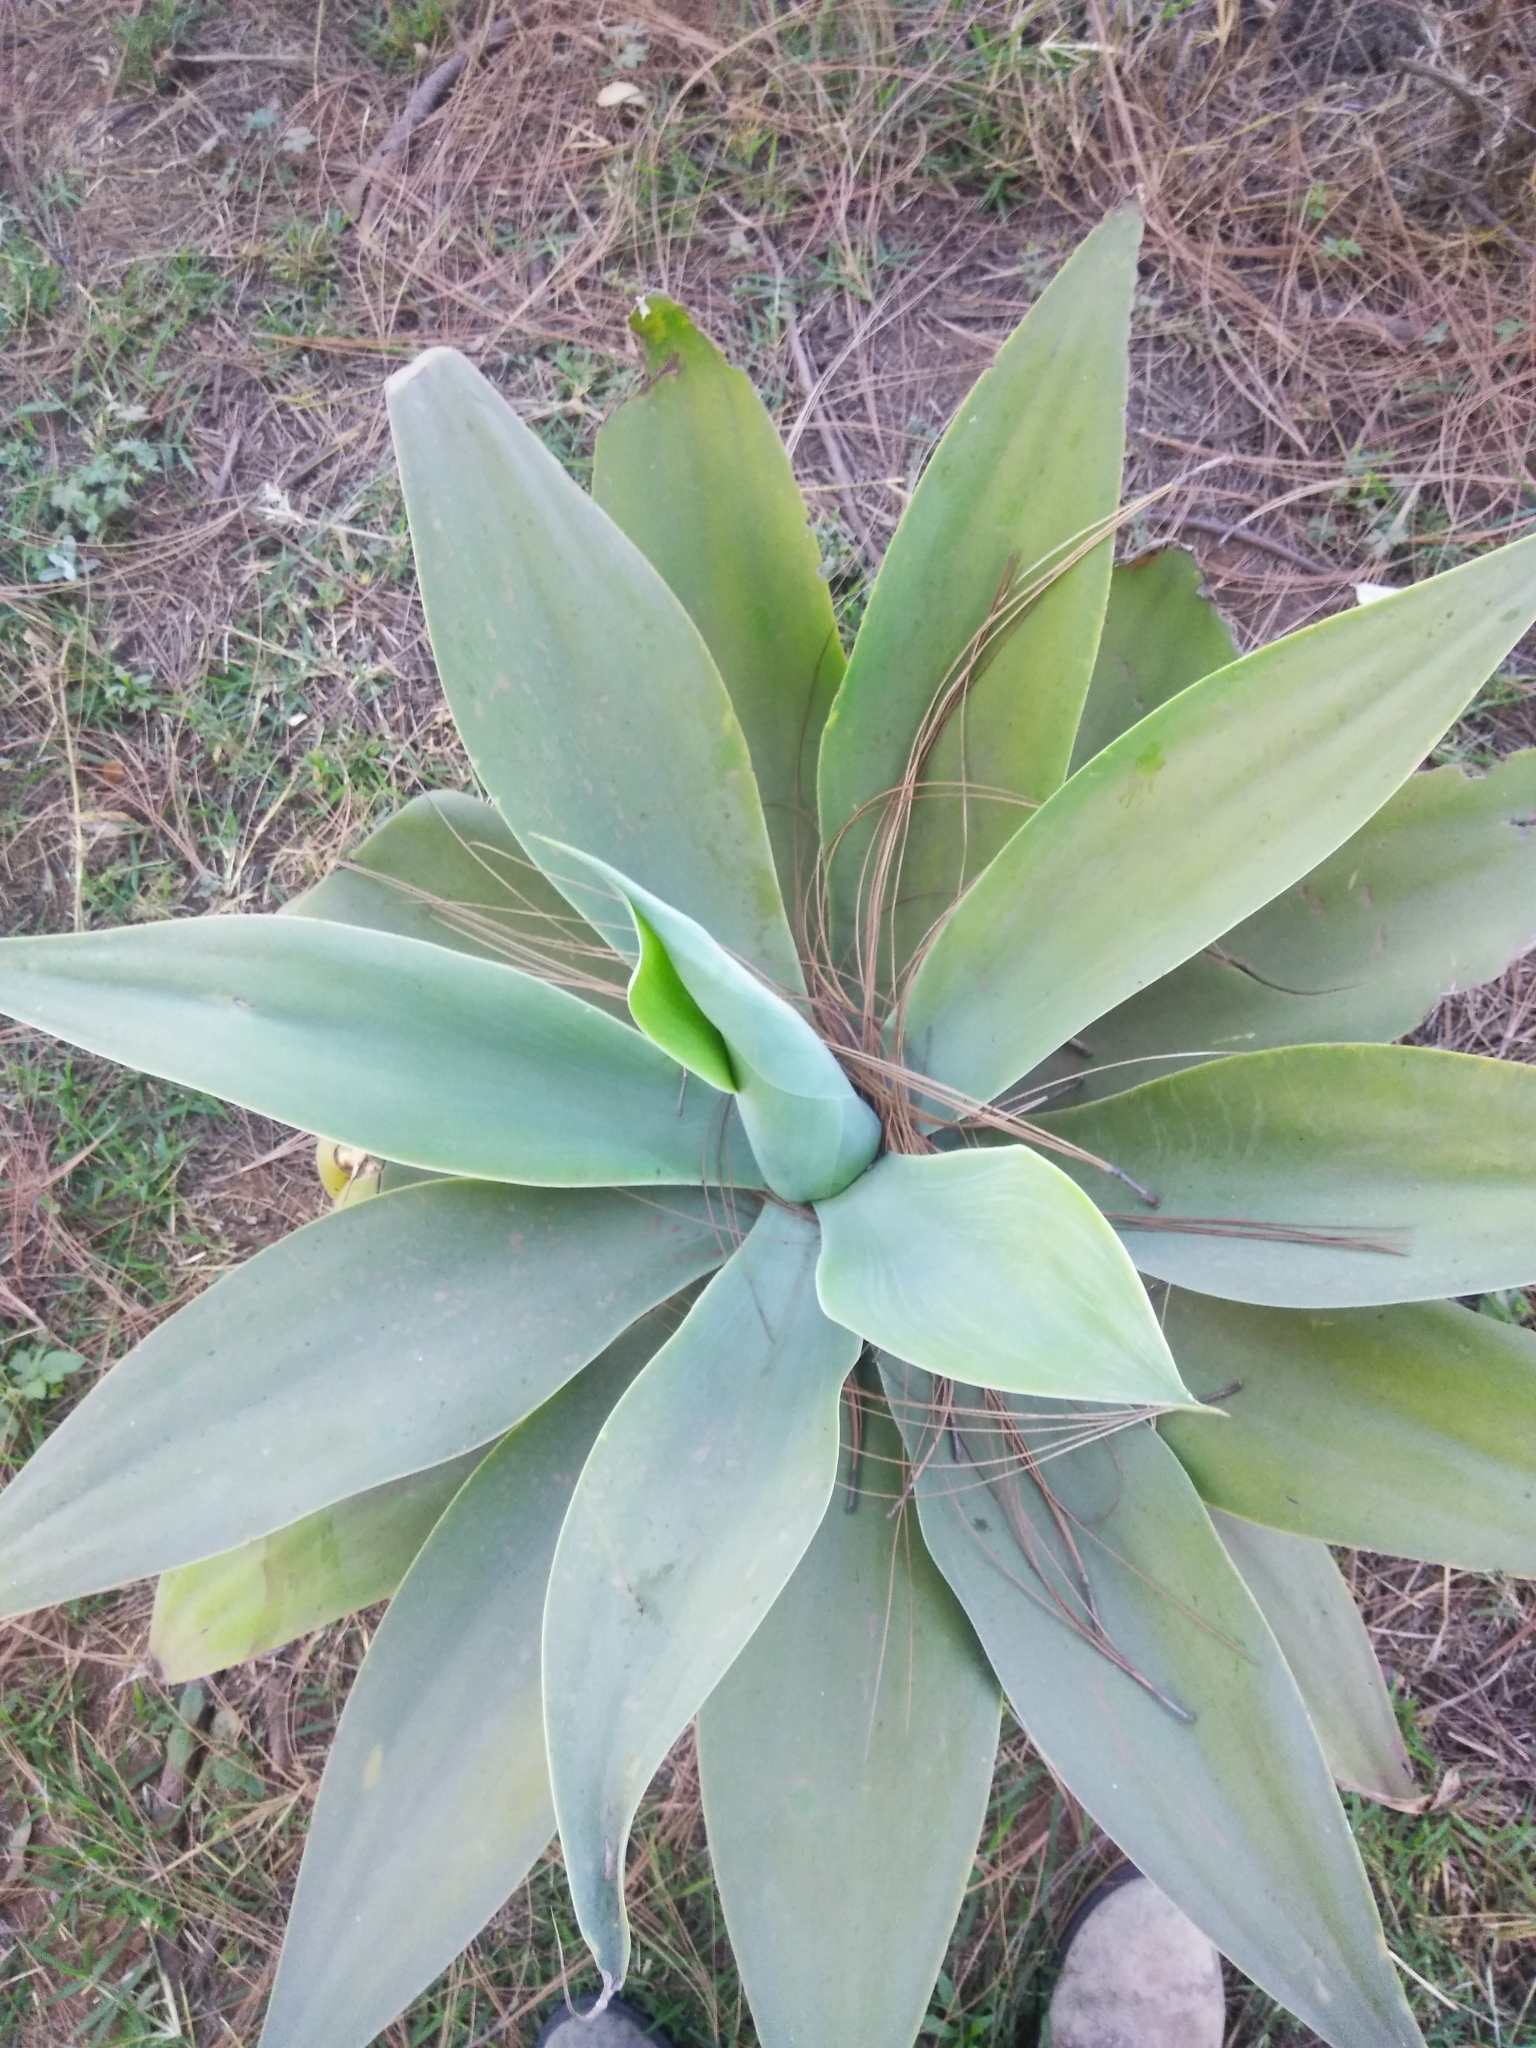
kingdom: Plantae
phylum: Tracheophyta
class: Liliopsida
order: Asparagales
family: Asparagaceae
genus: Agave
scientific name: Agave attenuata
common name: Fox tail agave
